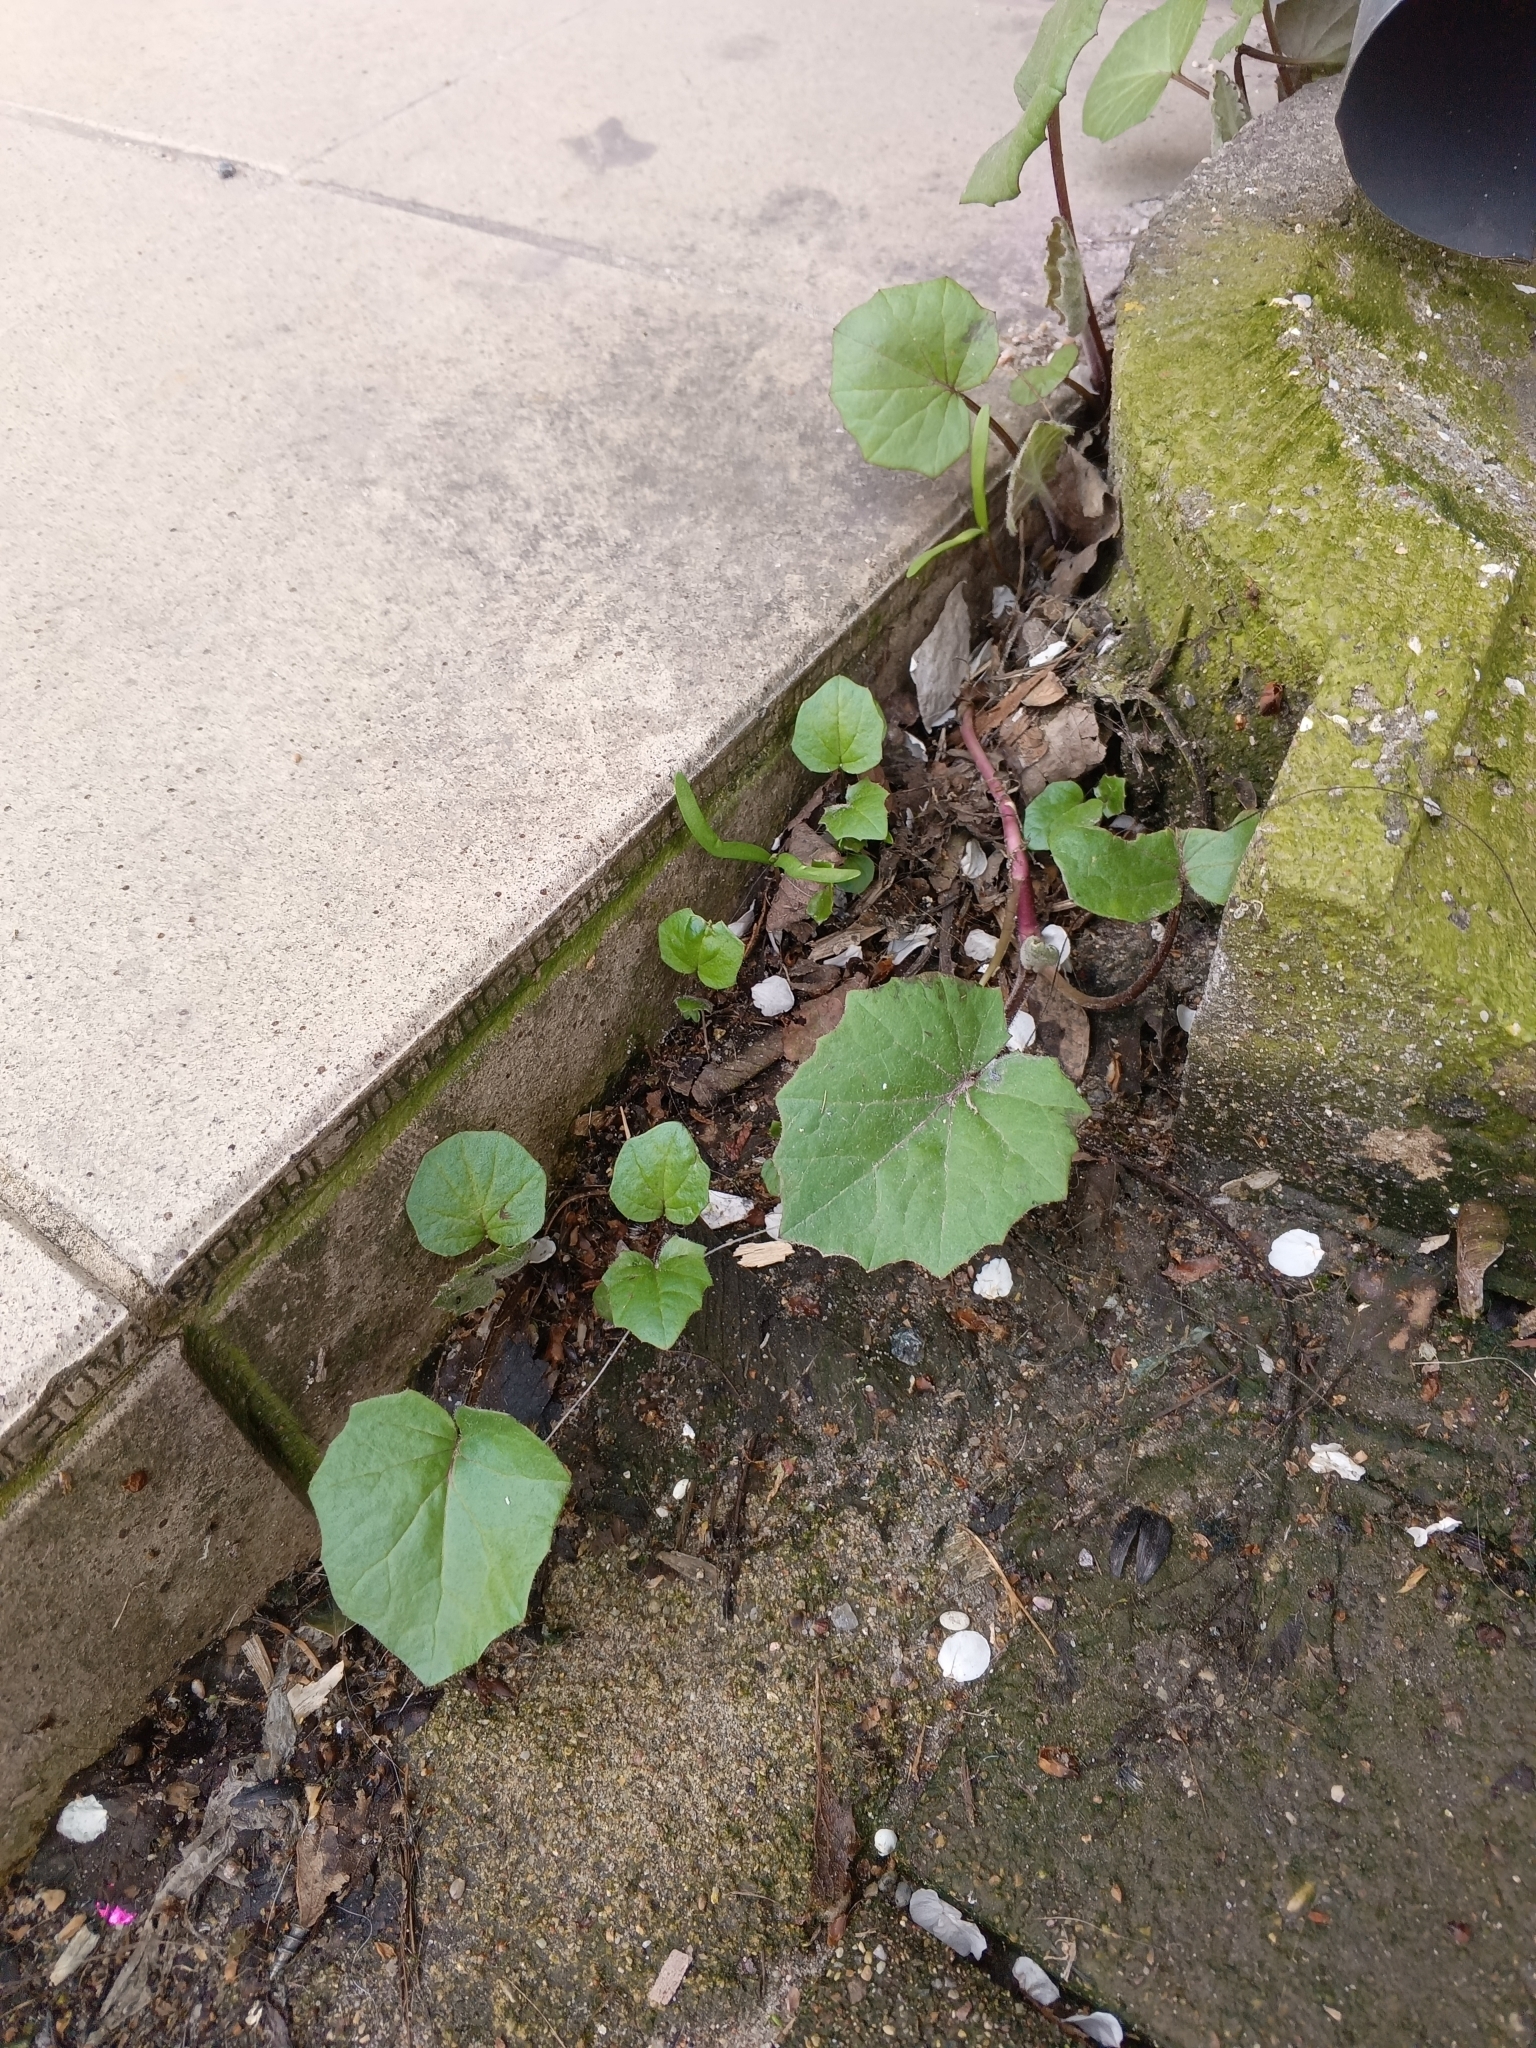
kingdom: Plantae
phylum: Tracheophyta
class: Magnoliopsida
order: Asterales
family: Asteraceae
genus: Tussilago
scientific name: Tussilago farfara
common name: Coltsfoot
